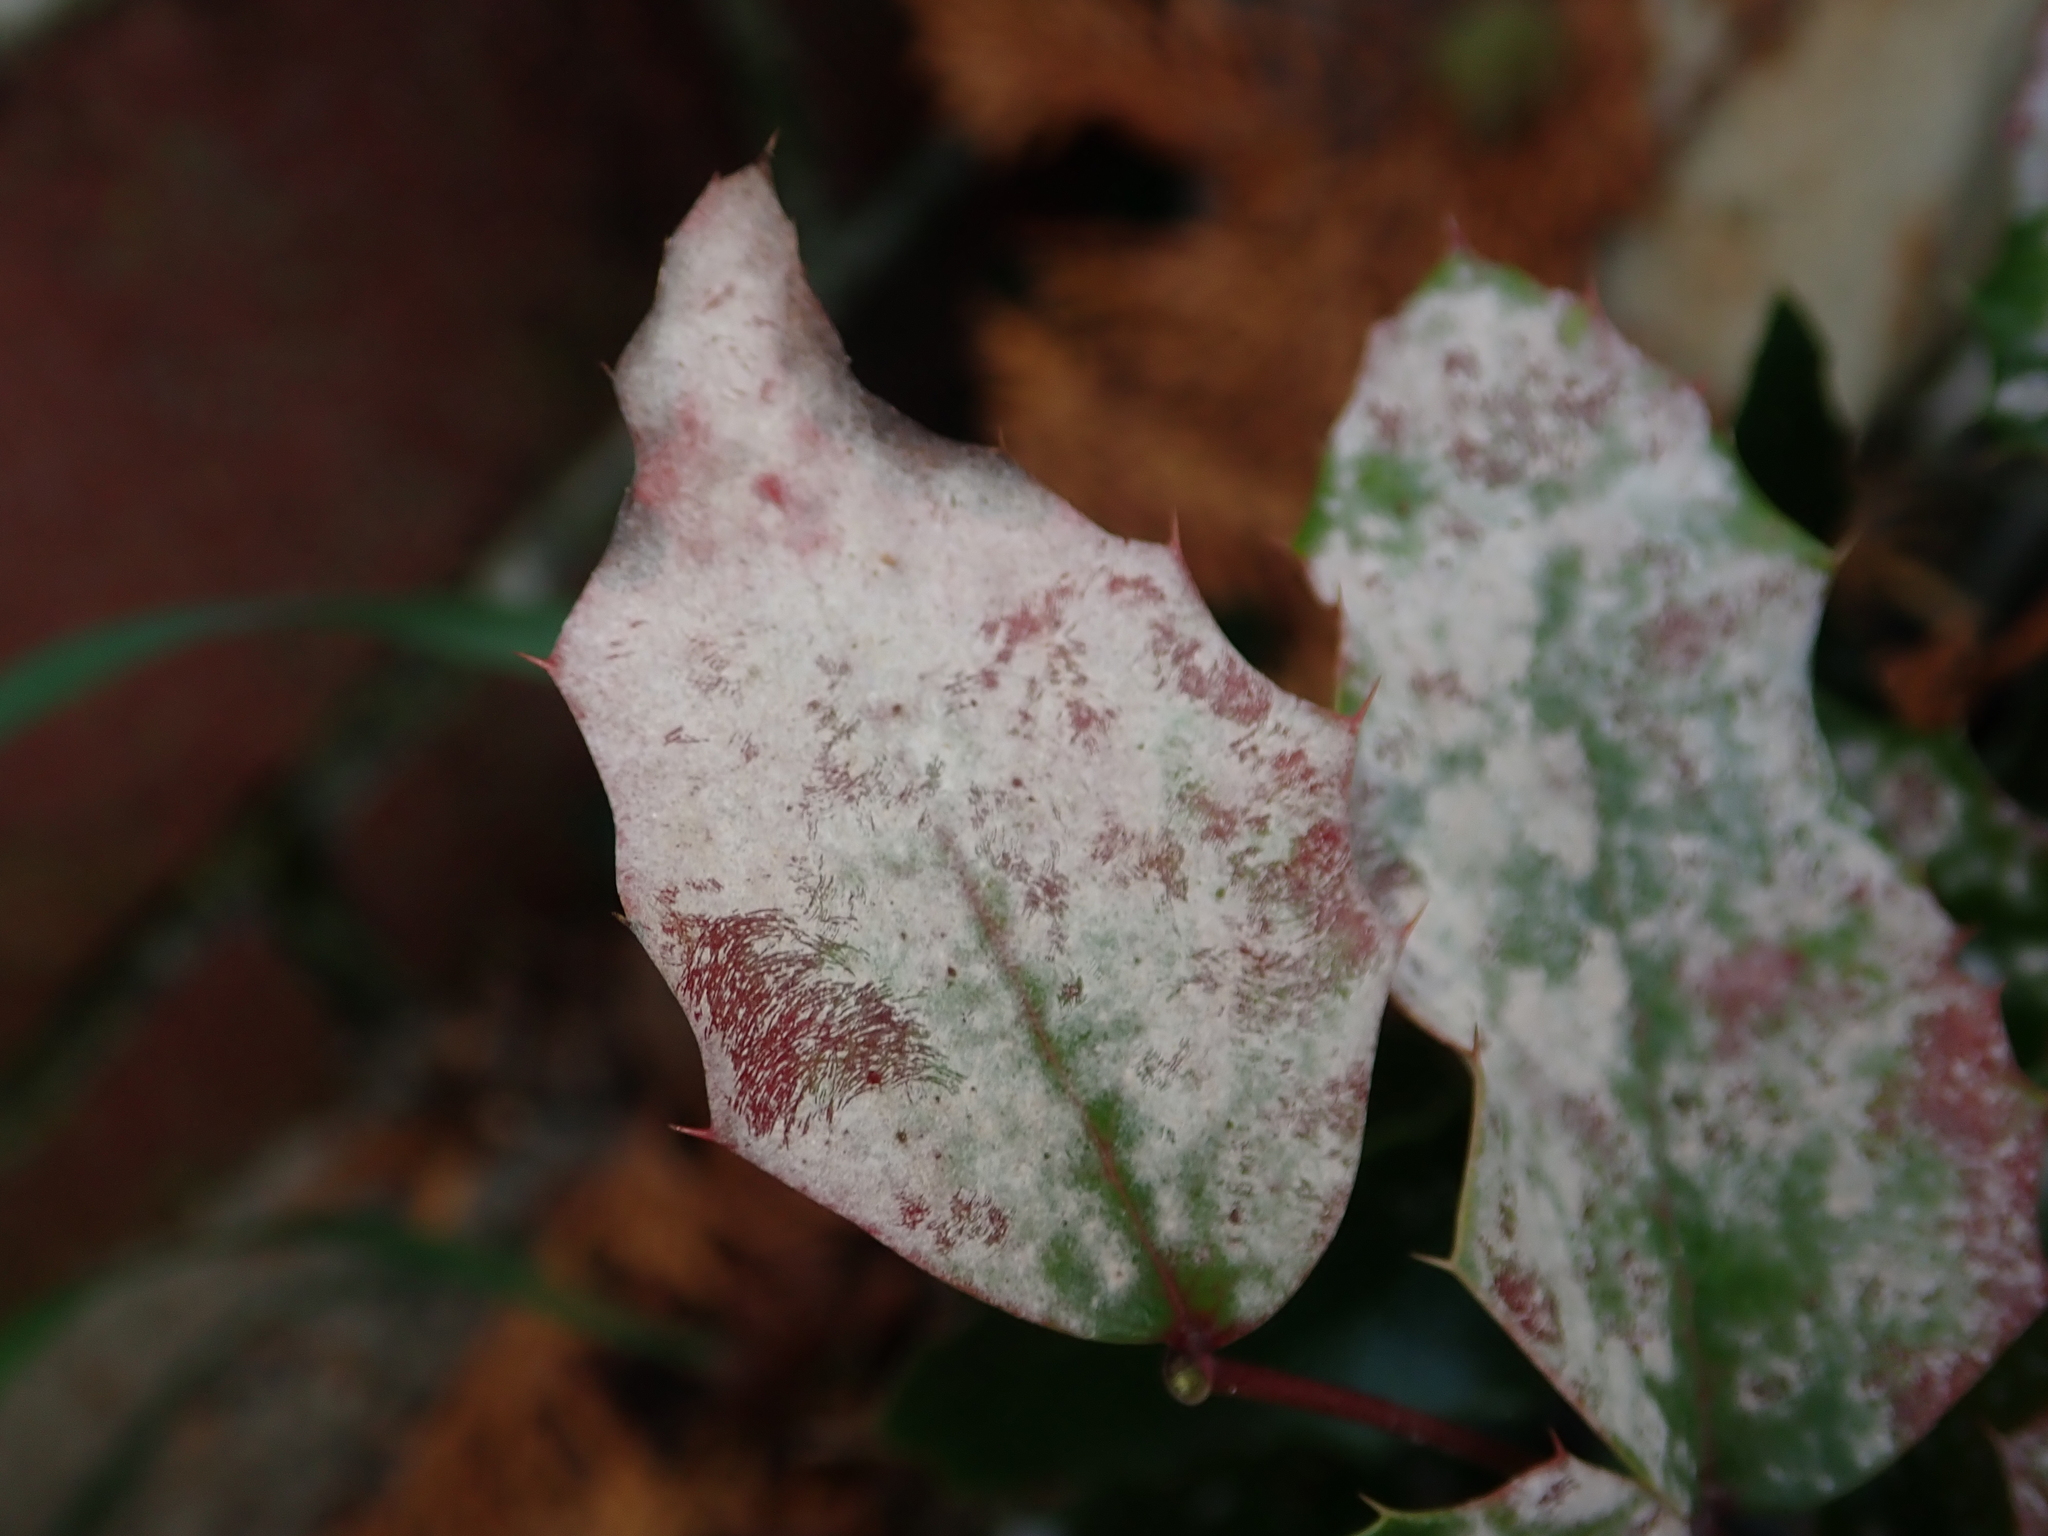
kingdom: Fungi
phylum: Ascomycota
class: Leotiomycetes
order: Helotiales
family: Erysiphaceae
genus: Erysiphe
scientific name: Erysiphe berberidis
